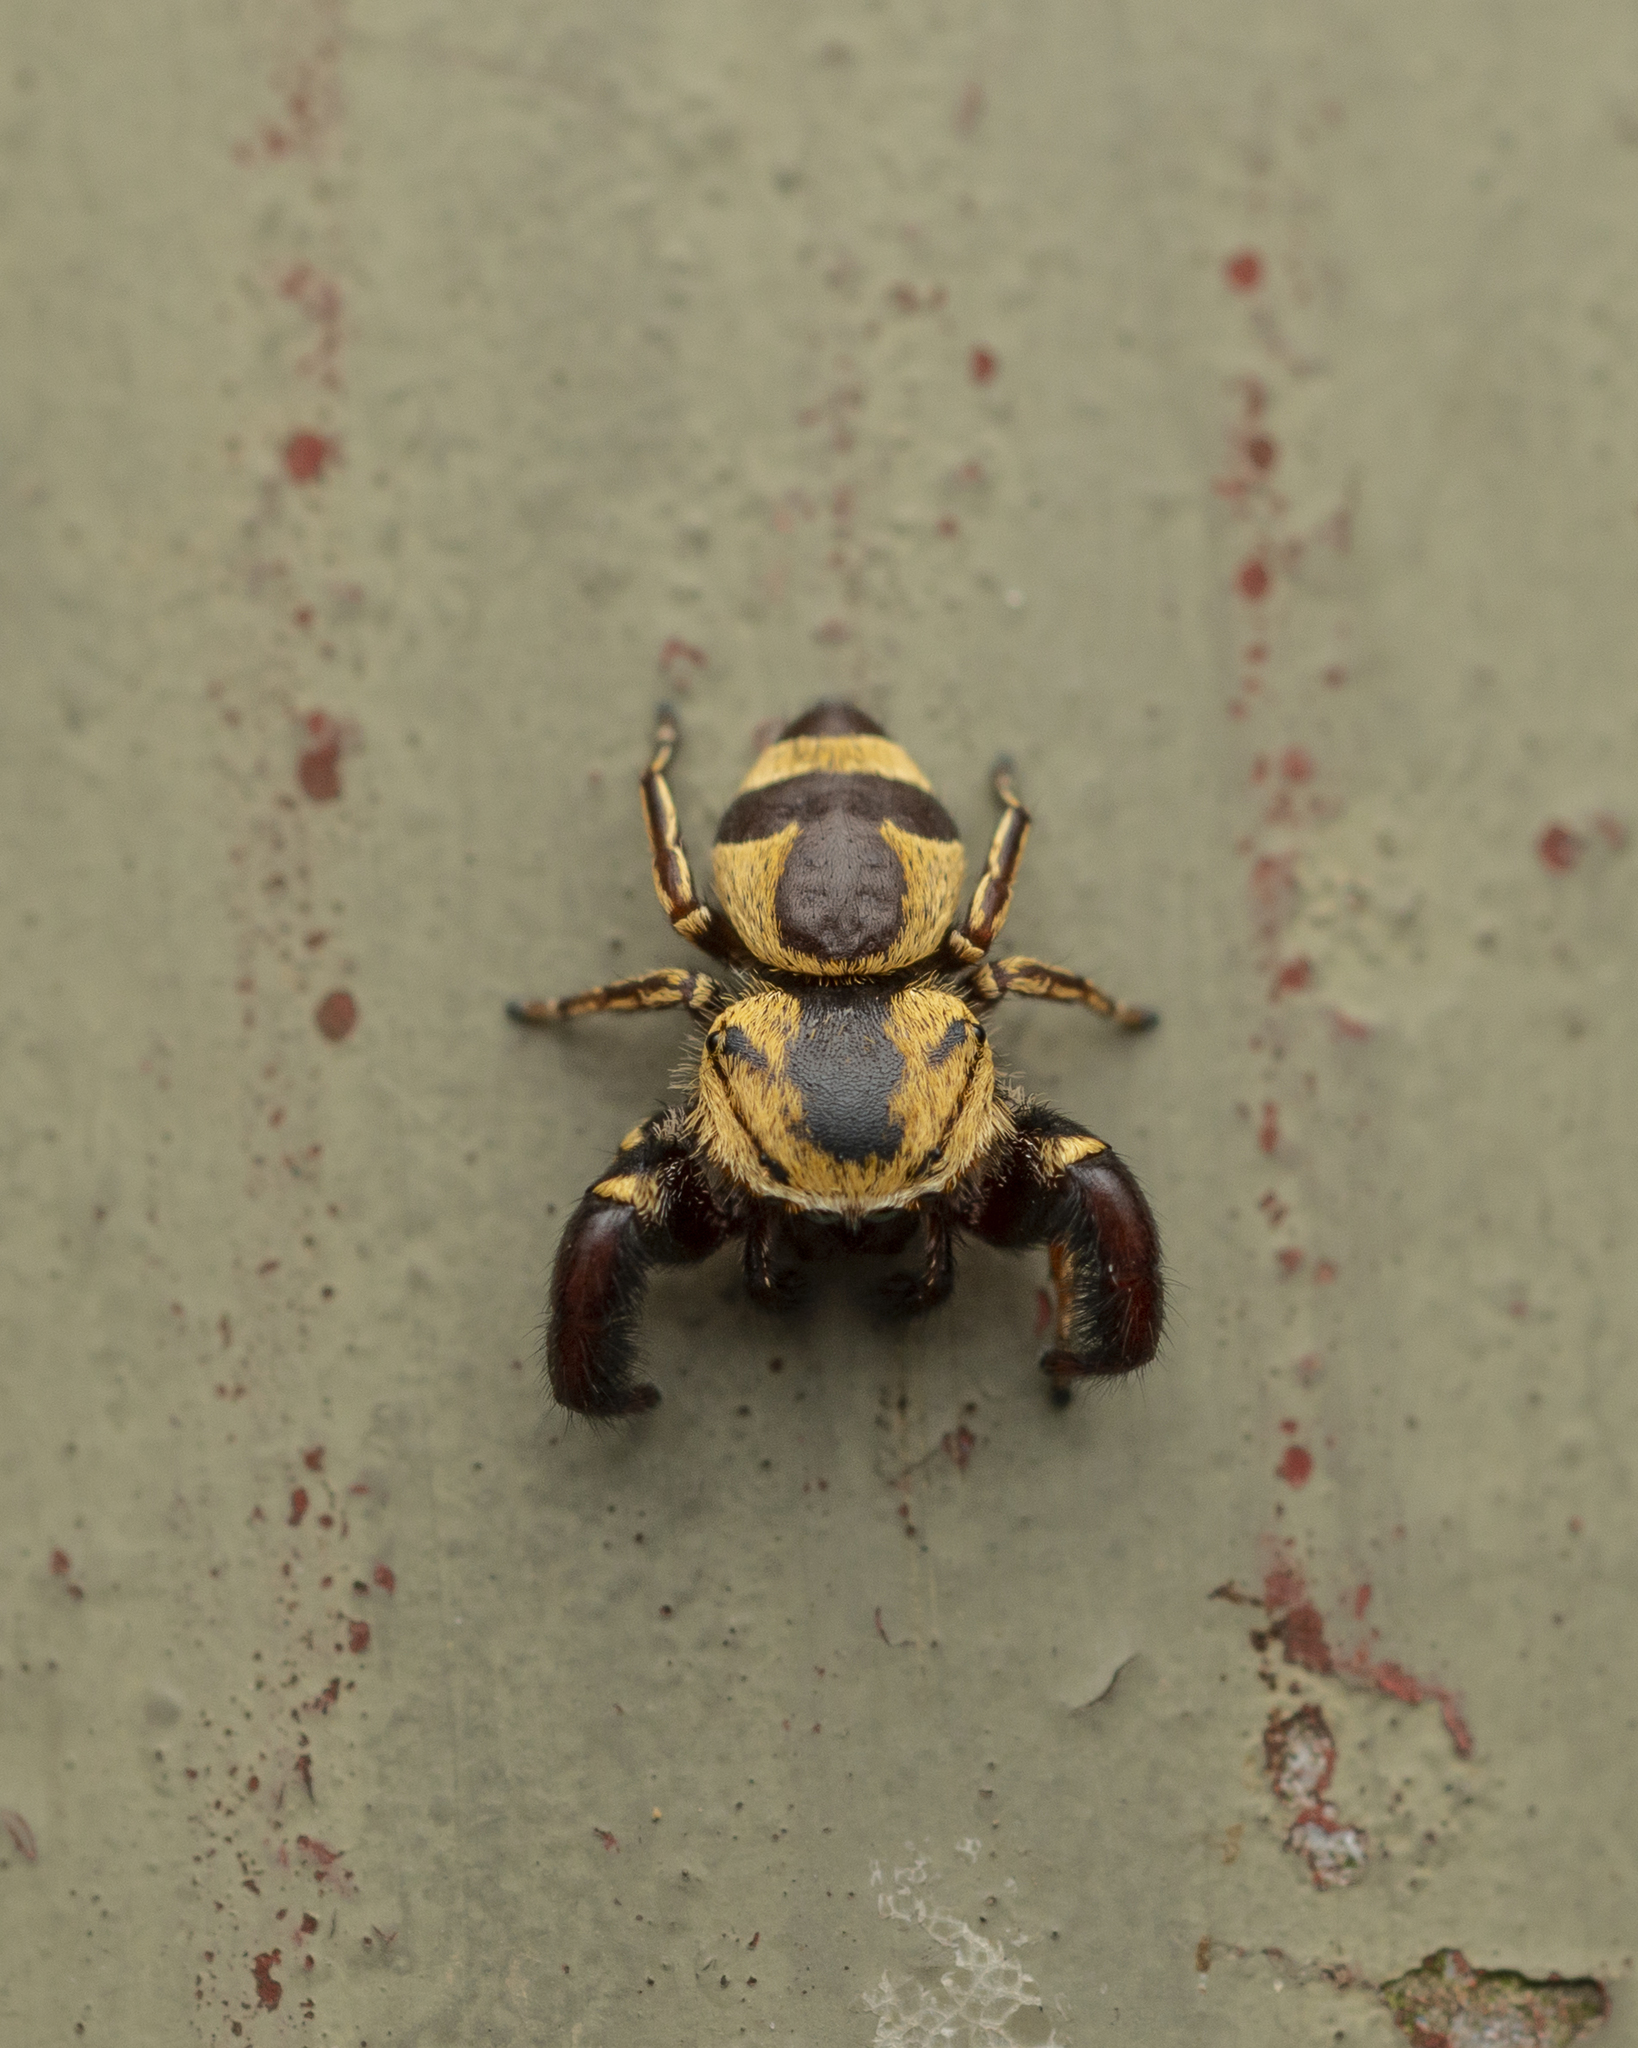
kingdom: Animalia
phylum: Arthropoda
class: Arachnida
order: Araneae
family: Salticidae
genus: Rhene
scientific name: Rhene flavicomans
